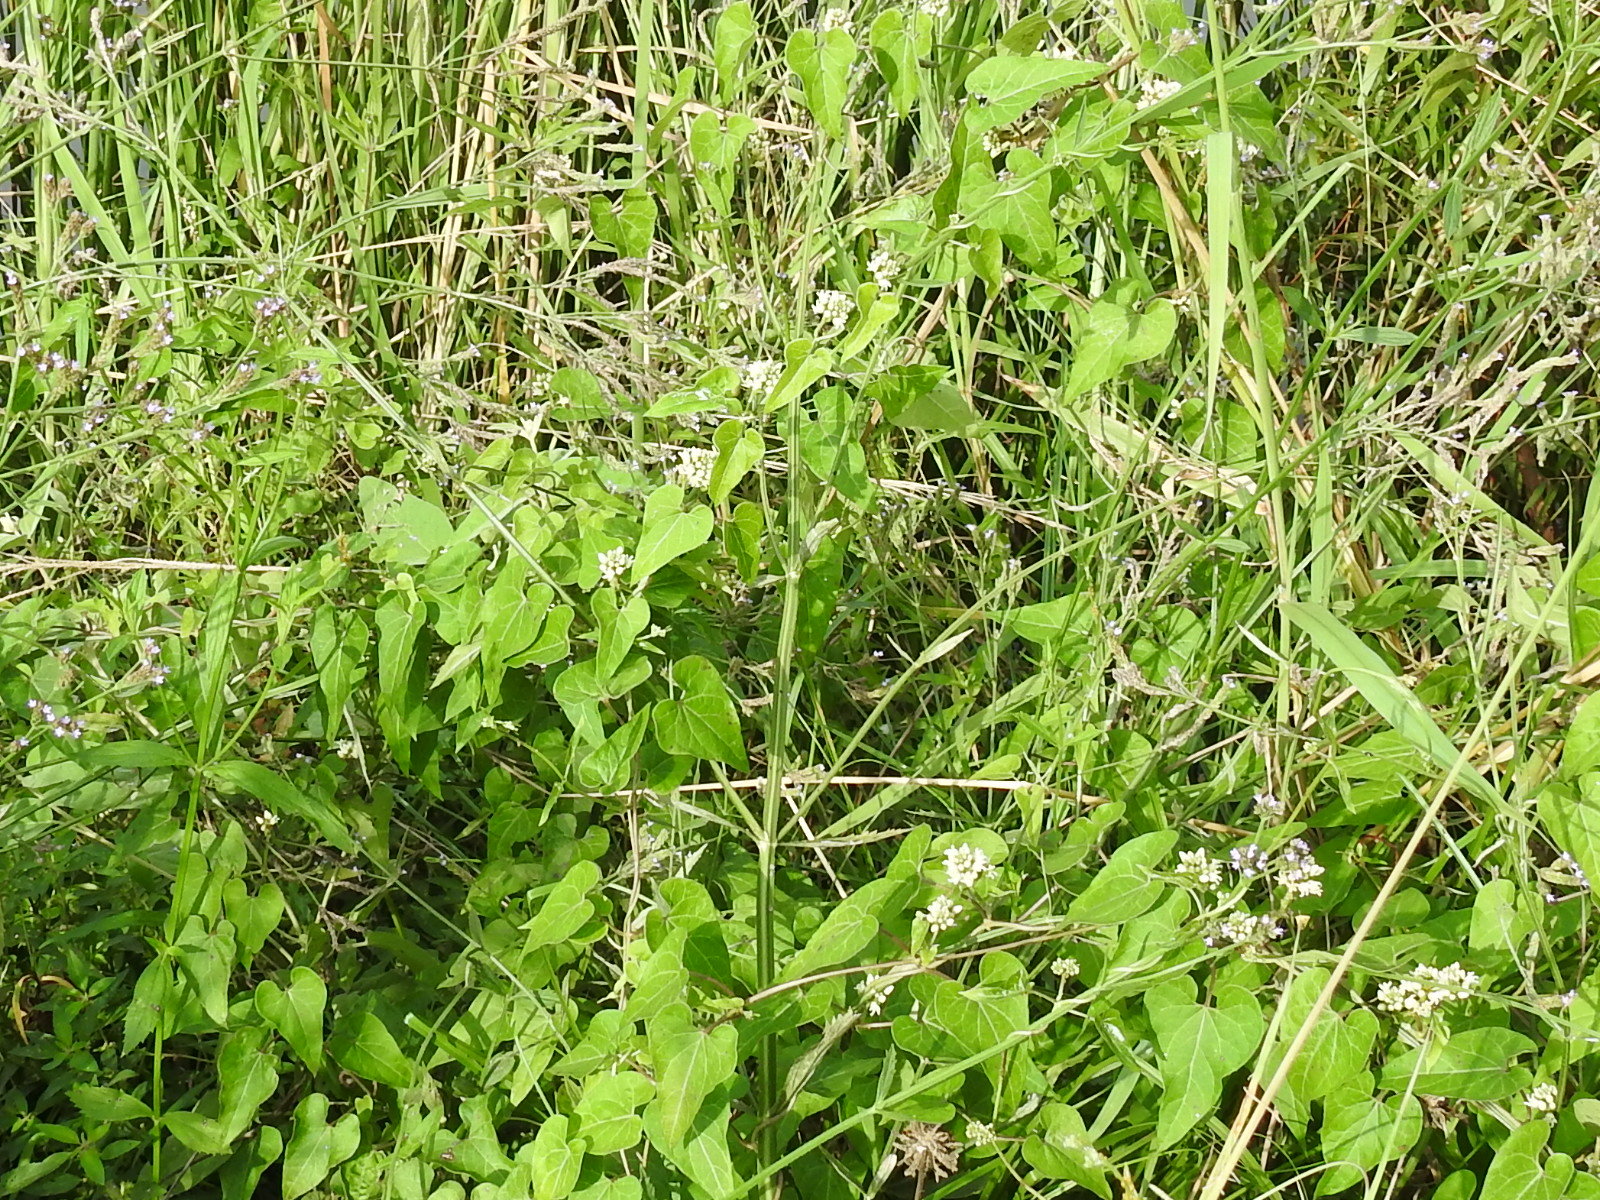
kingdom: Plantae
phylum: Tracheophyta
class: Magnoliopsida
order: Gentianales
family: Apocynaceae
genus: Cynanchum
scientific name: Cynanchum laeve
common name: Sandvine
